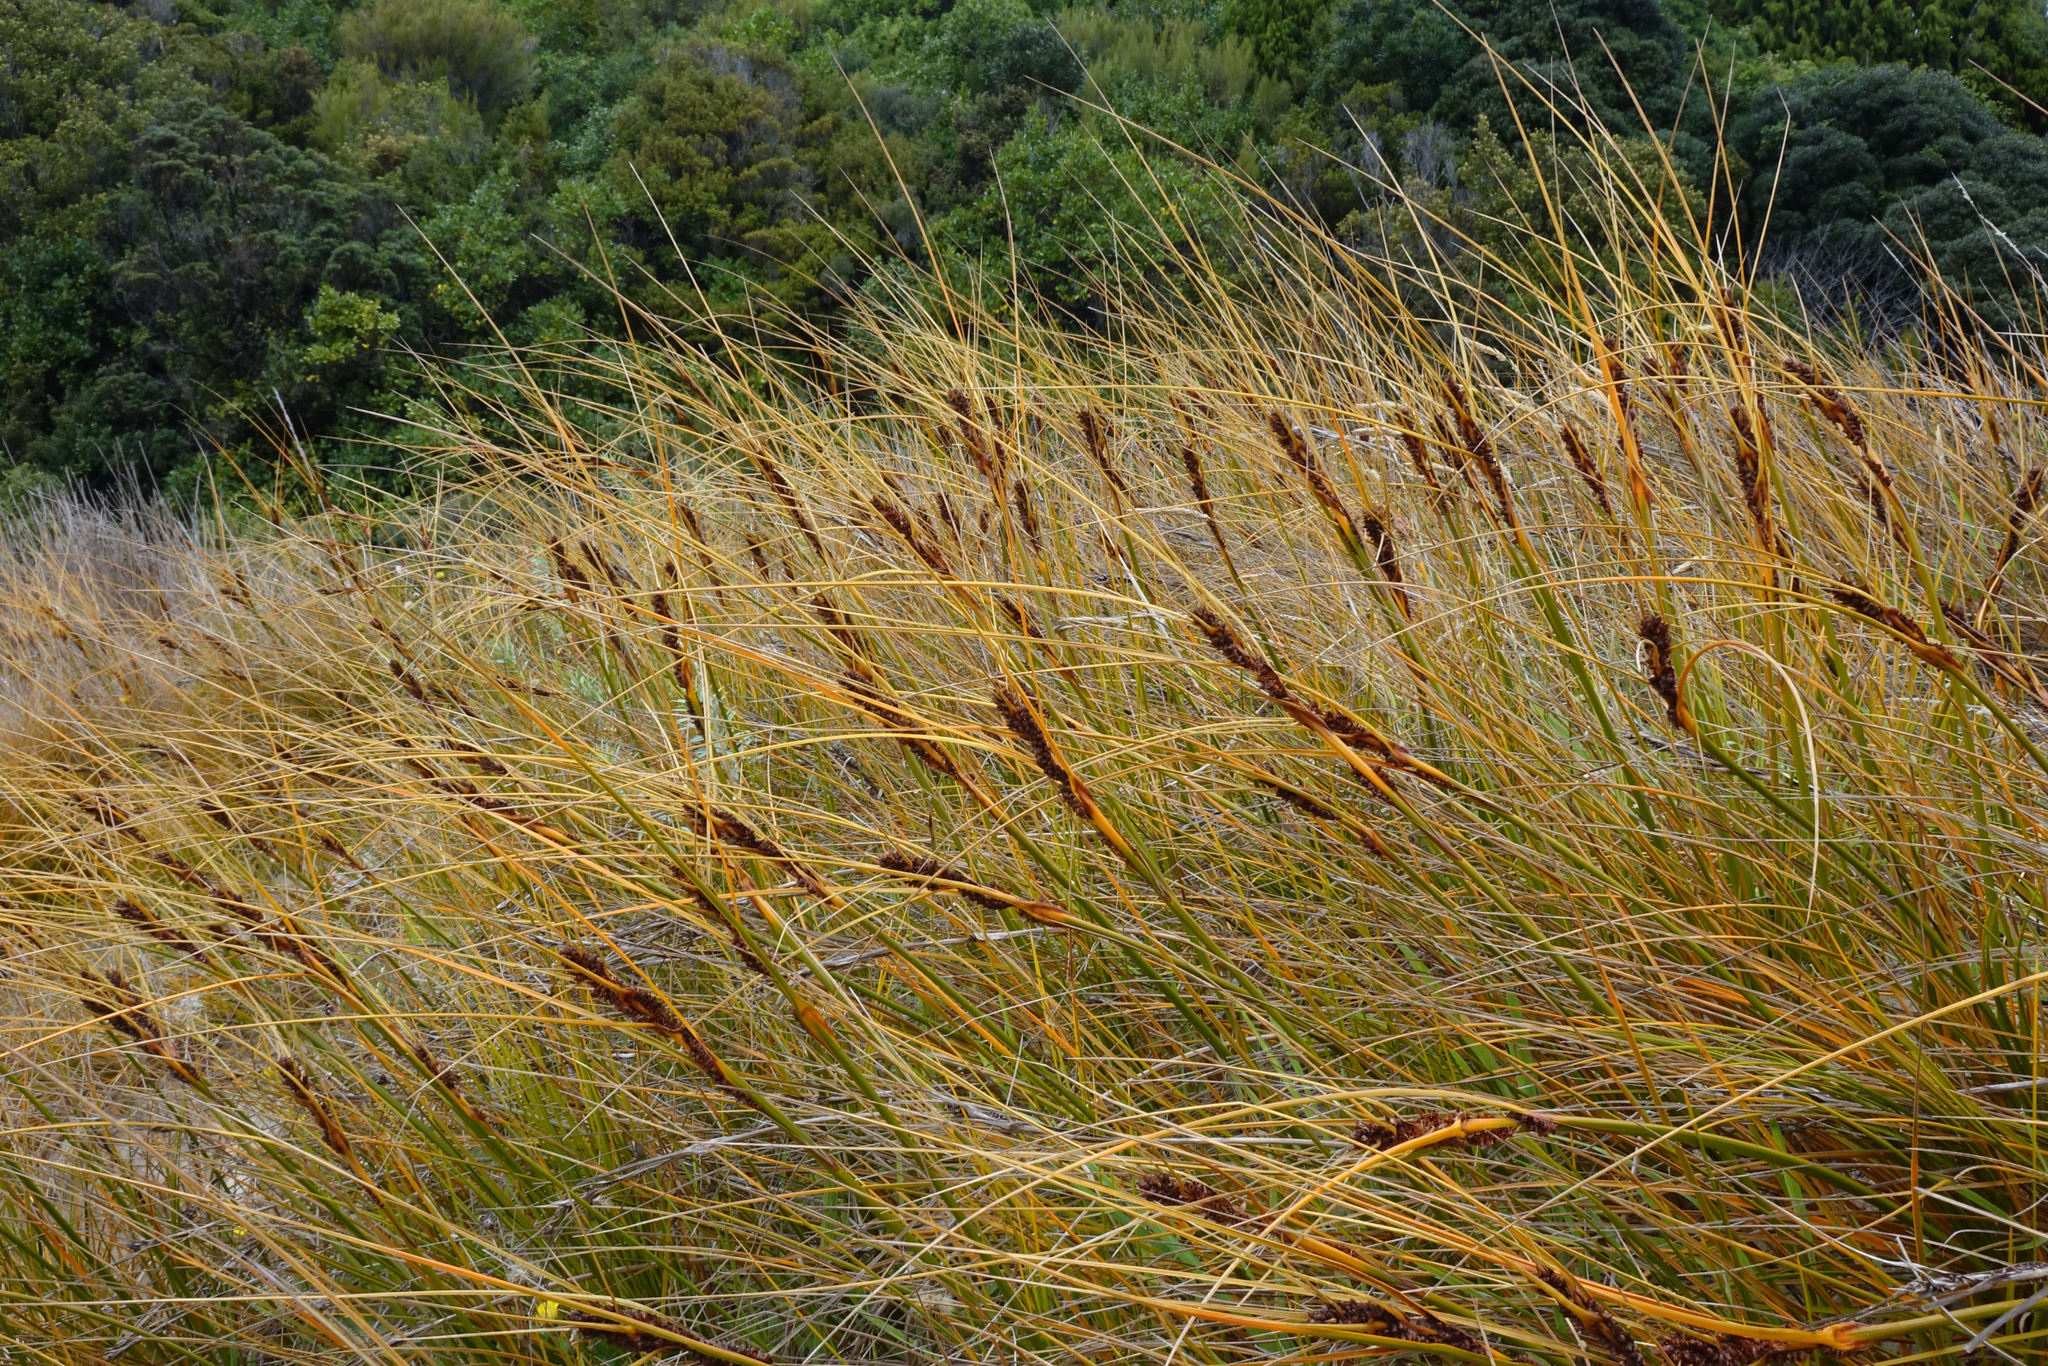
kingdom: Plantae
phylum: Tracheophyta
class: Liliopsida
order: Poales
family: Cyperaceae
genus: Ficinia
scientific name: Ficinia spiralis
